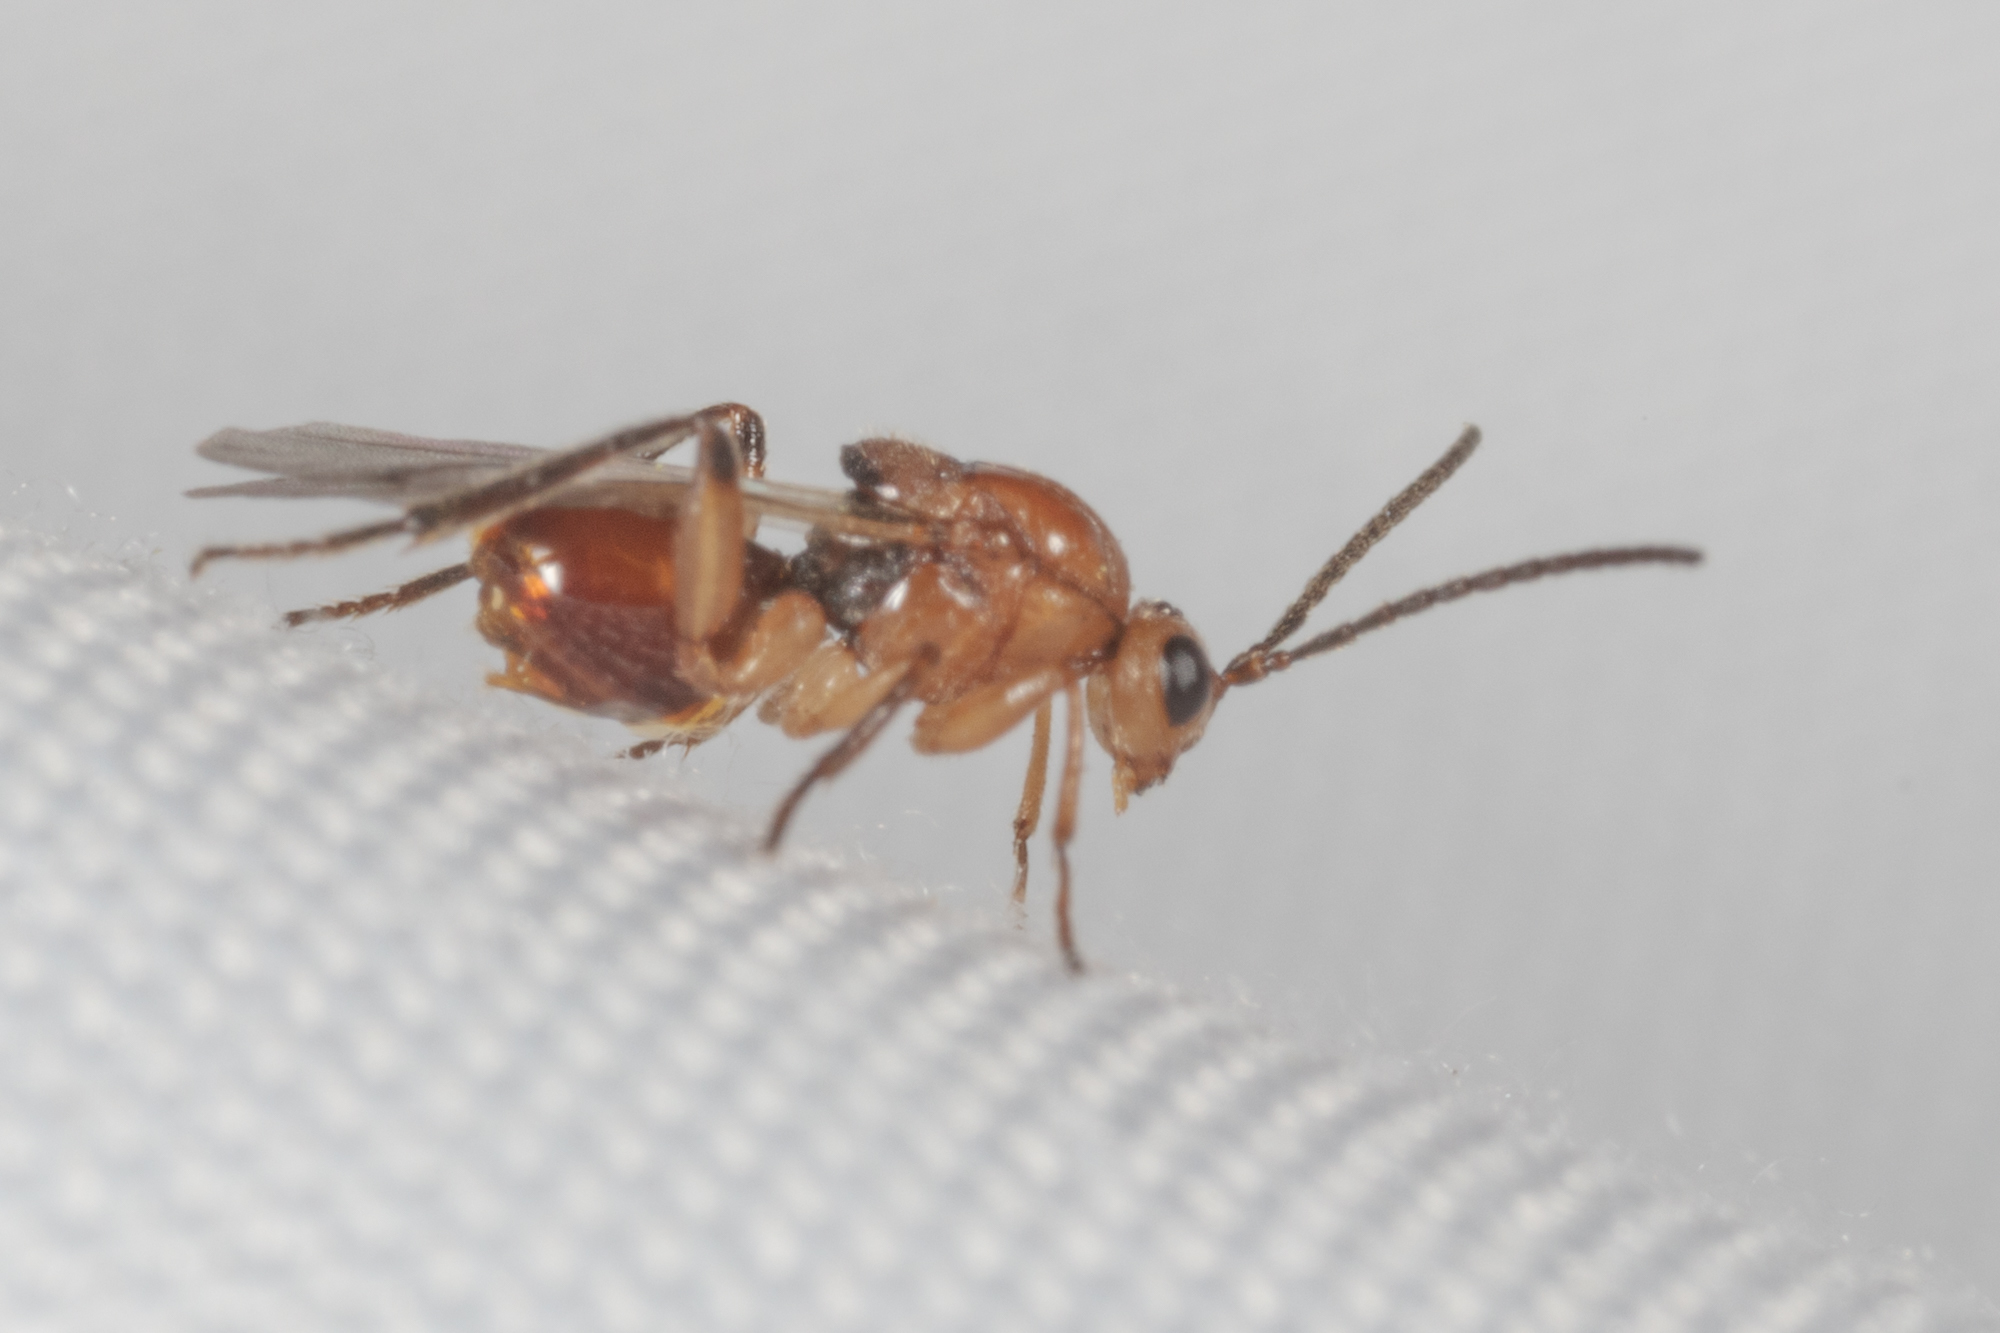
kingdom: Animalia
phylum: Arthropoda
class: Insecta
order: Hymenoptera
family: Cynipidae
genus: Belonocnema
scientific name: Belonocnema kinseyi
